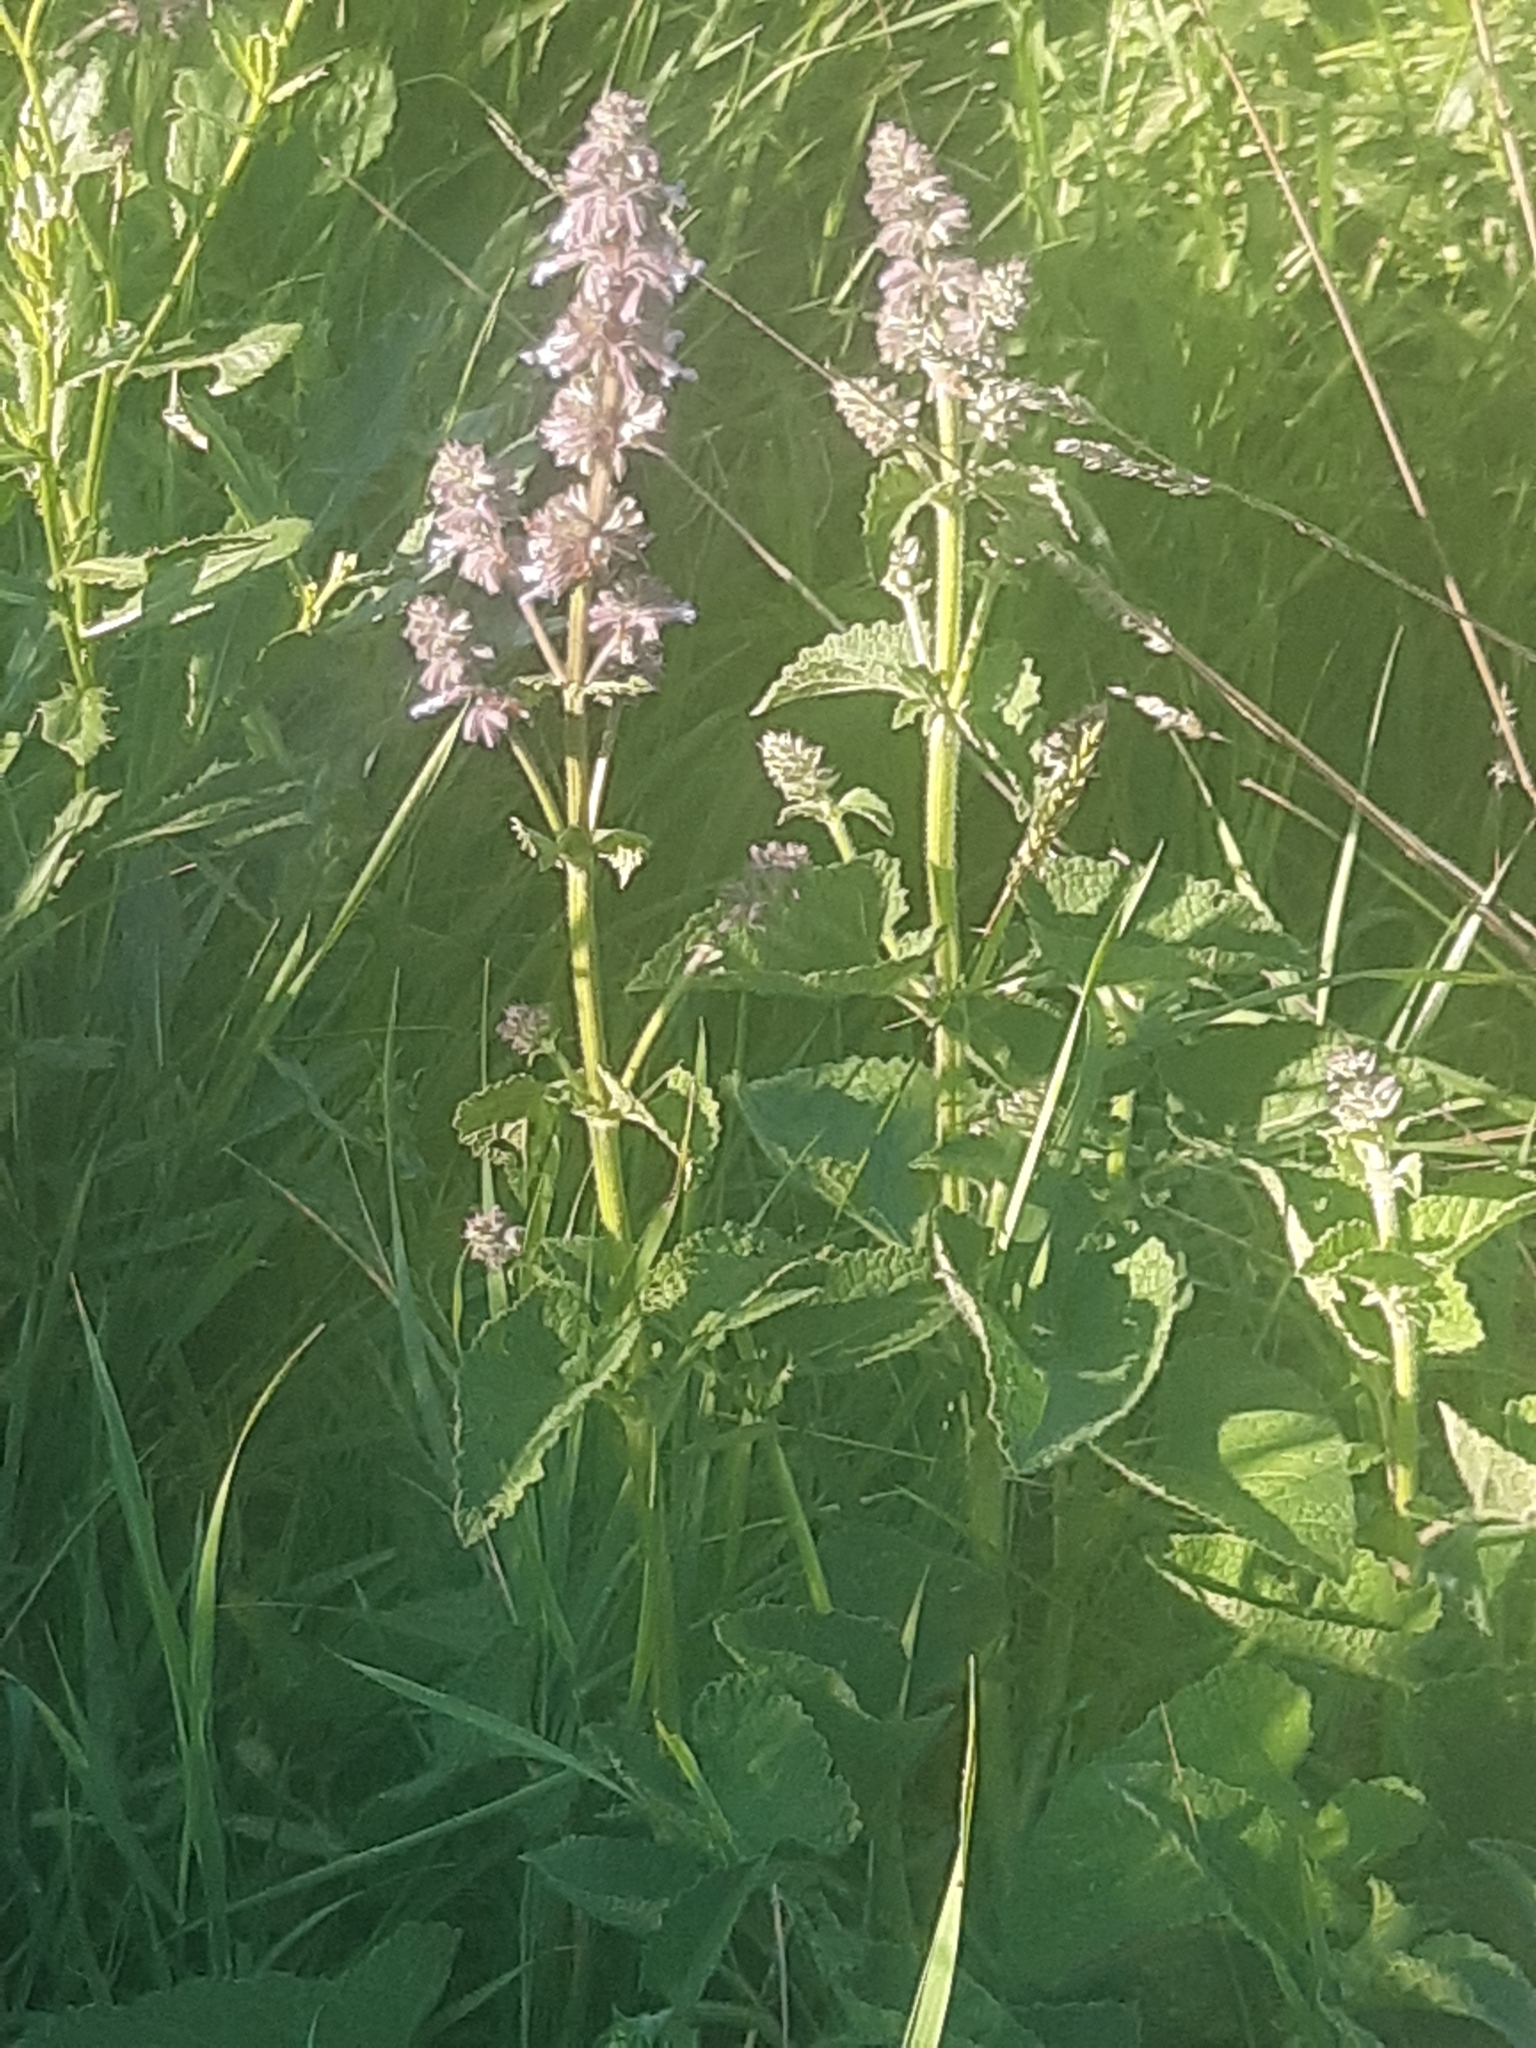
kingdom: Plantae
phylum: Tracheophyta
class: Magnoliopsida
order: Lamiales
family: Lamiaceae
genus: Salvia
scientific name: Salvia verticillata
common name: Whorled clary
